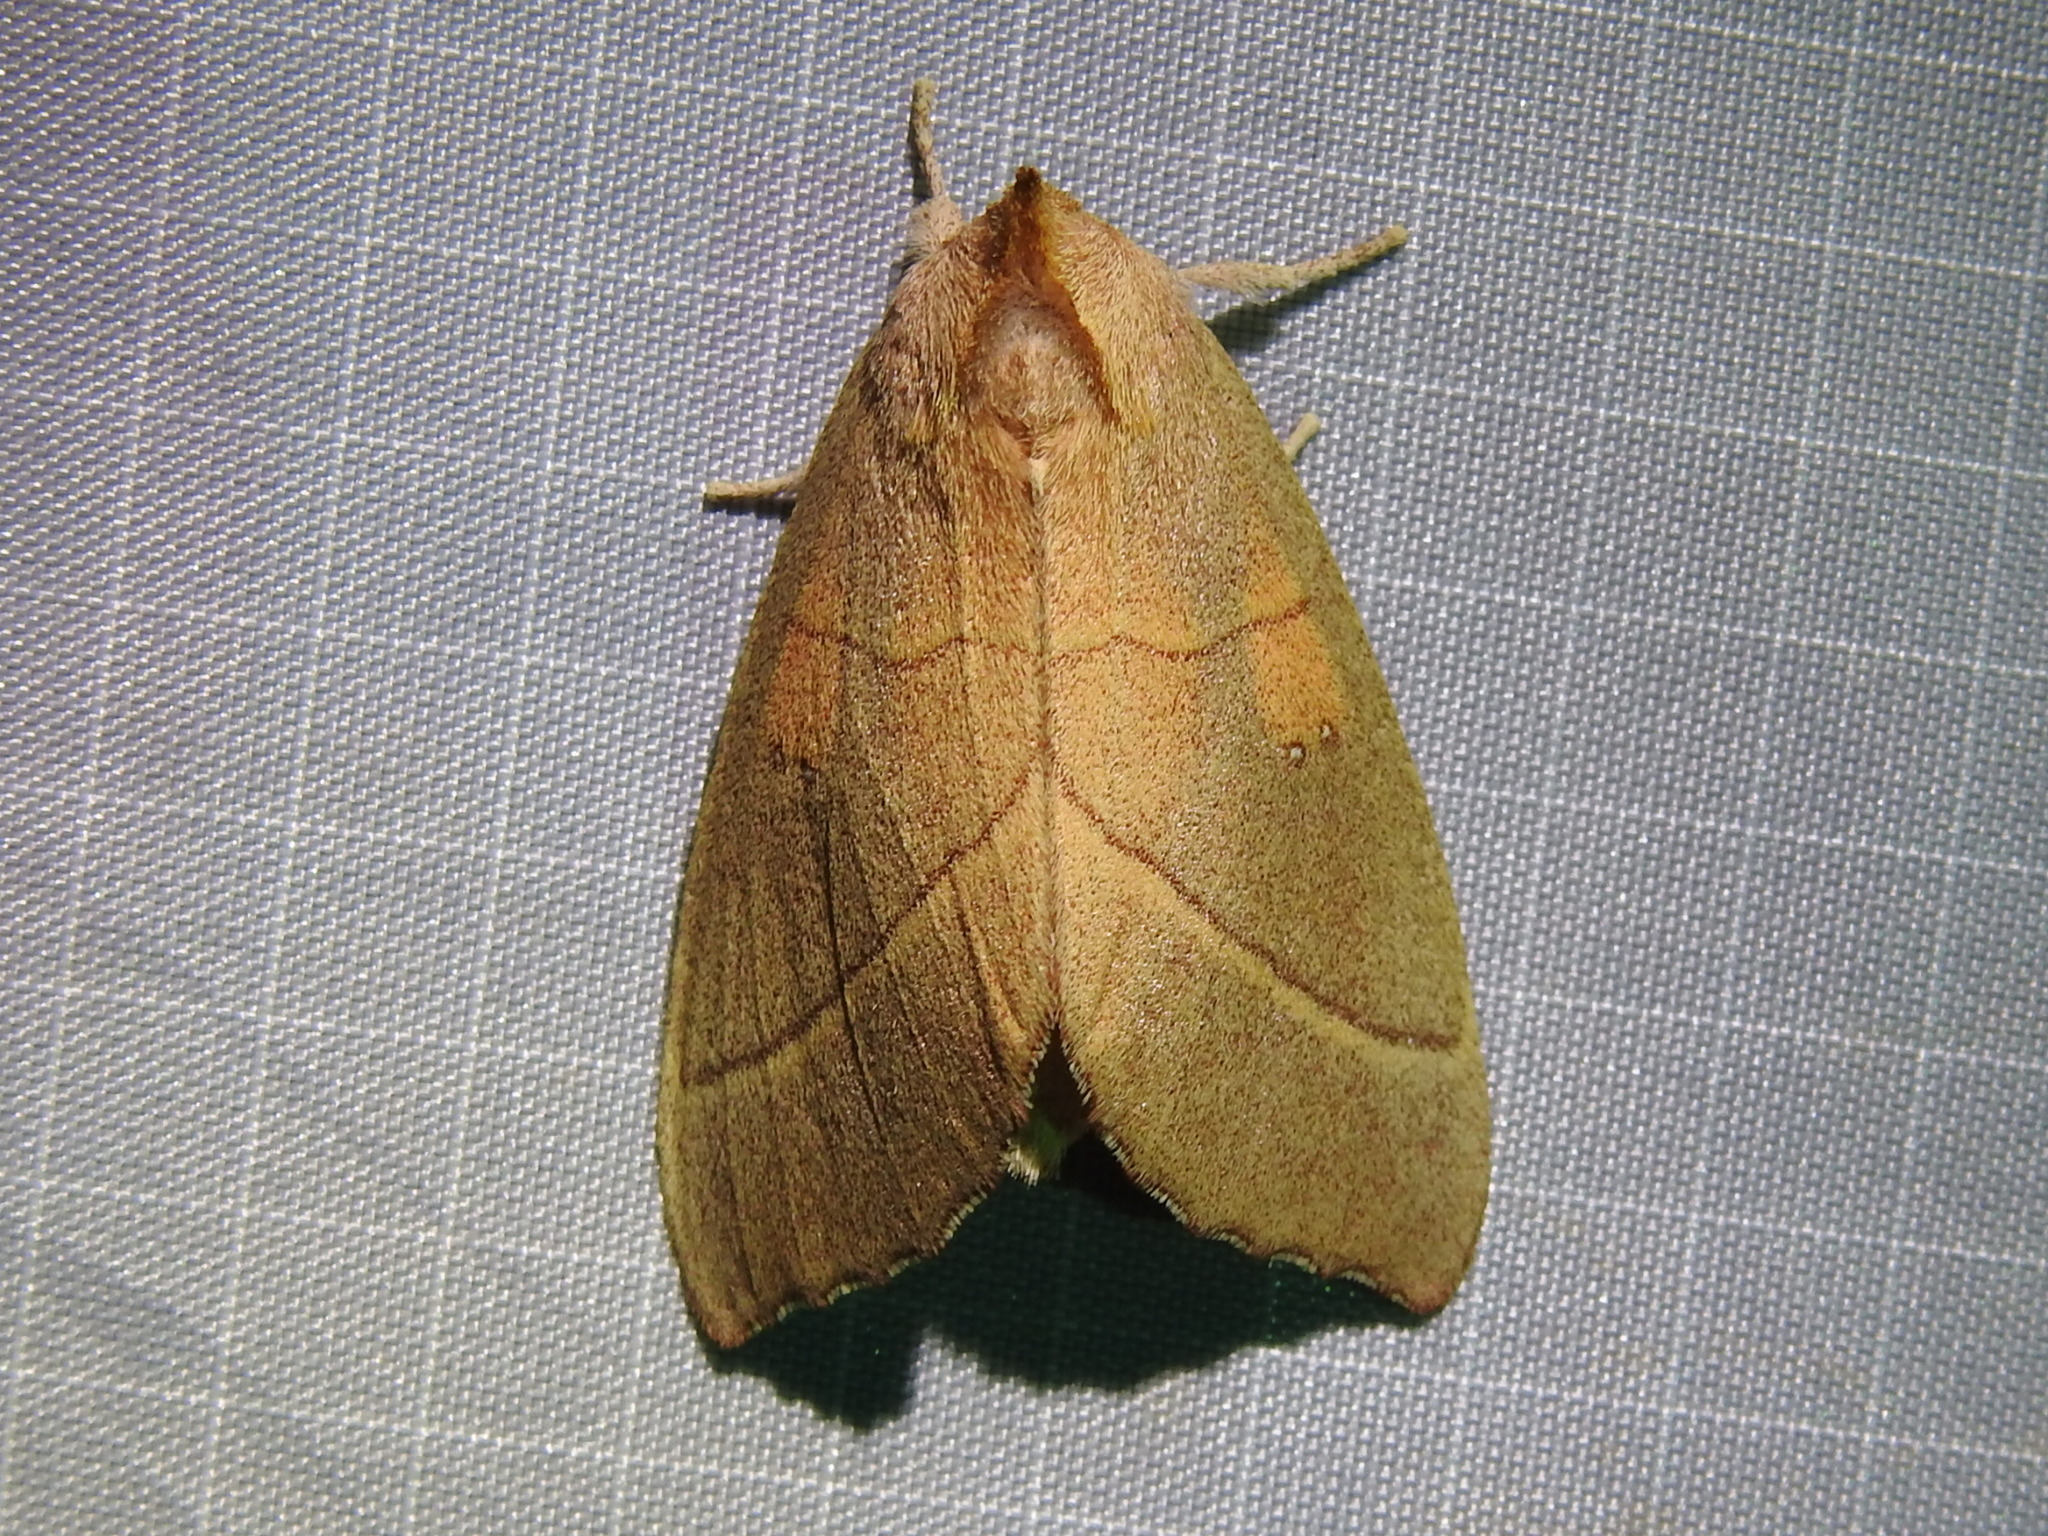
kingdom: Animalia
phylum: Arthropoda
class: Insecta
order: Lepidoptera
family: Notodontidae
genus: Nadata
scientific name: Nadata gibbosa
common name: White-dotted prominent
